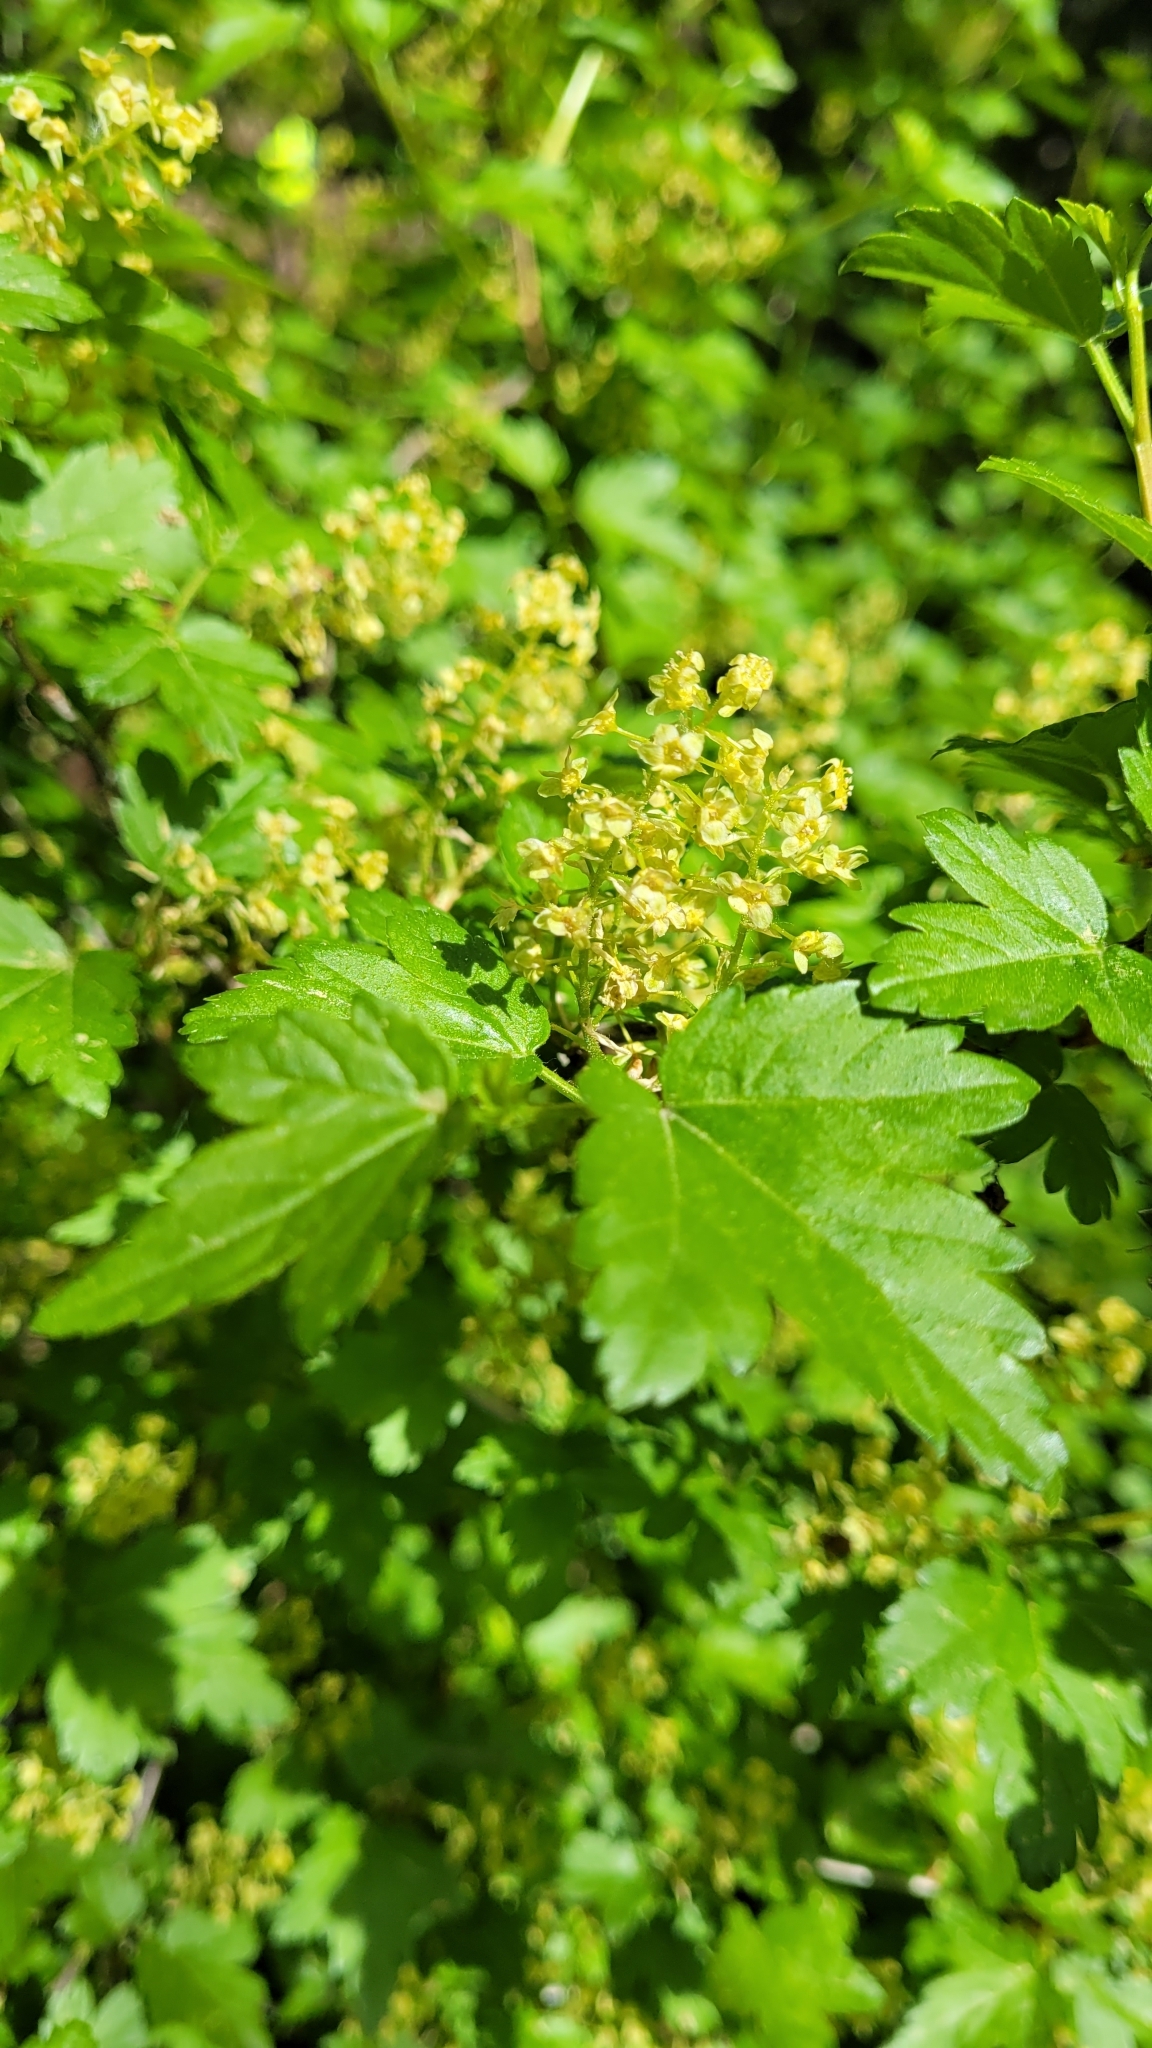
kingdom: Plantae
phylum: Tracheophyta
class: Magnoliopsida
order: Saxifragales
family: Grossulariaceae
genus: Ribes
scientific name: Ribes alpinum
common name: Alpine currant
